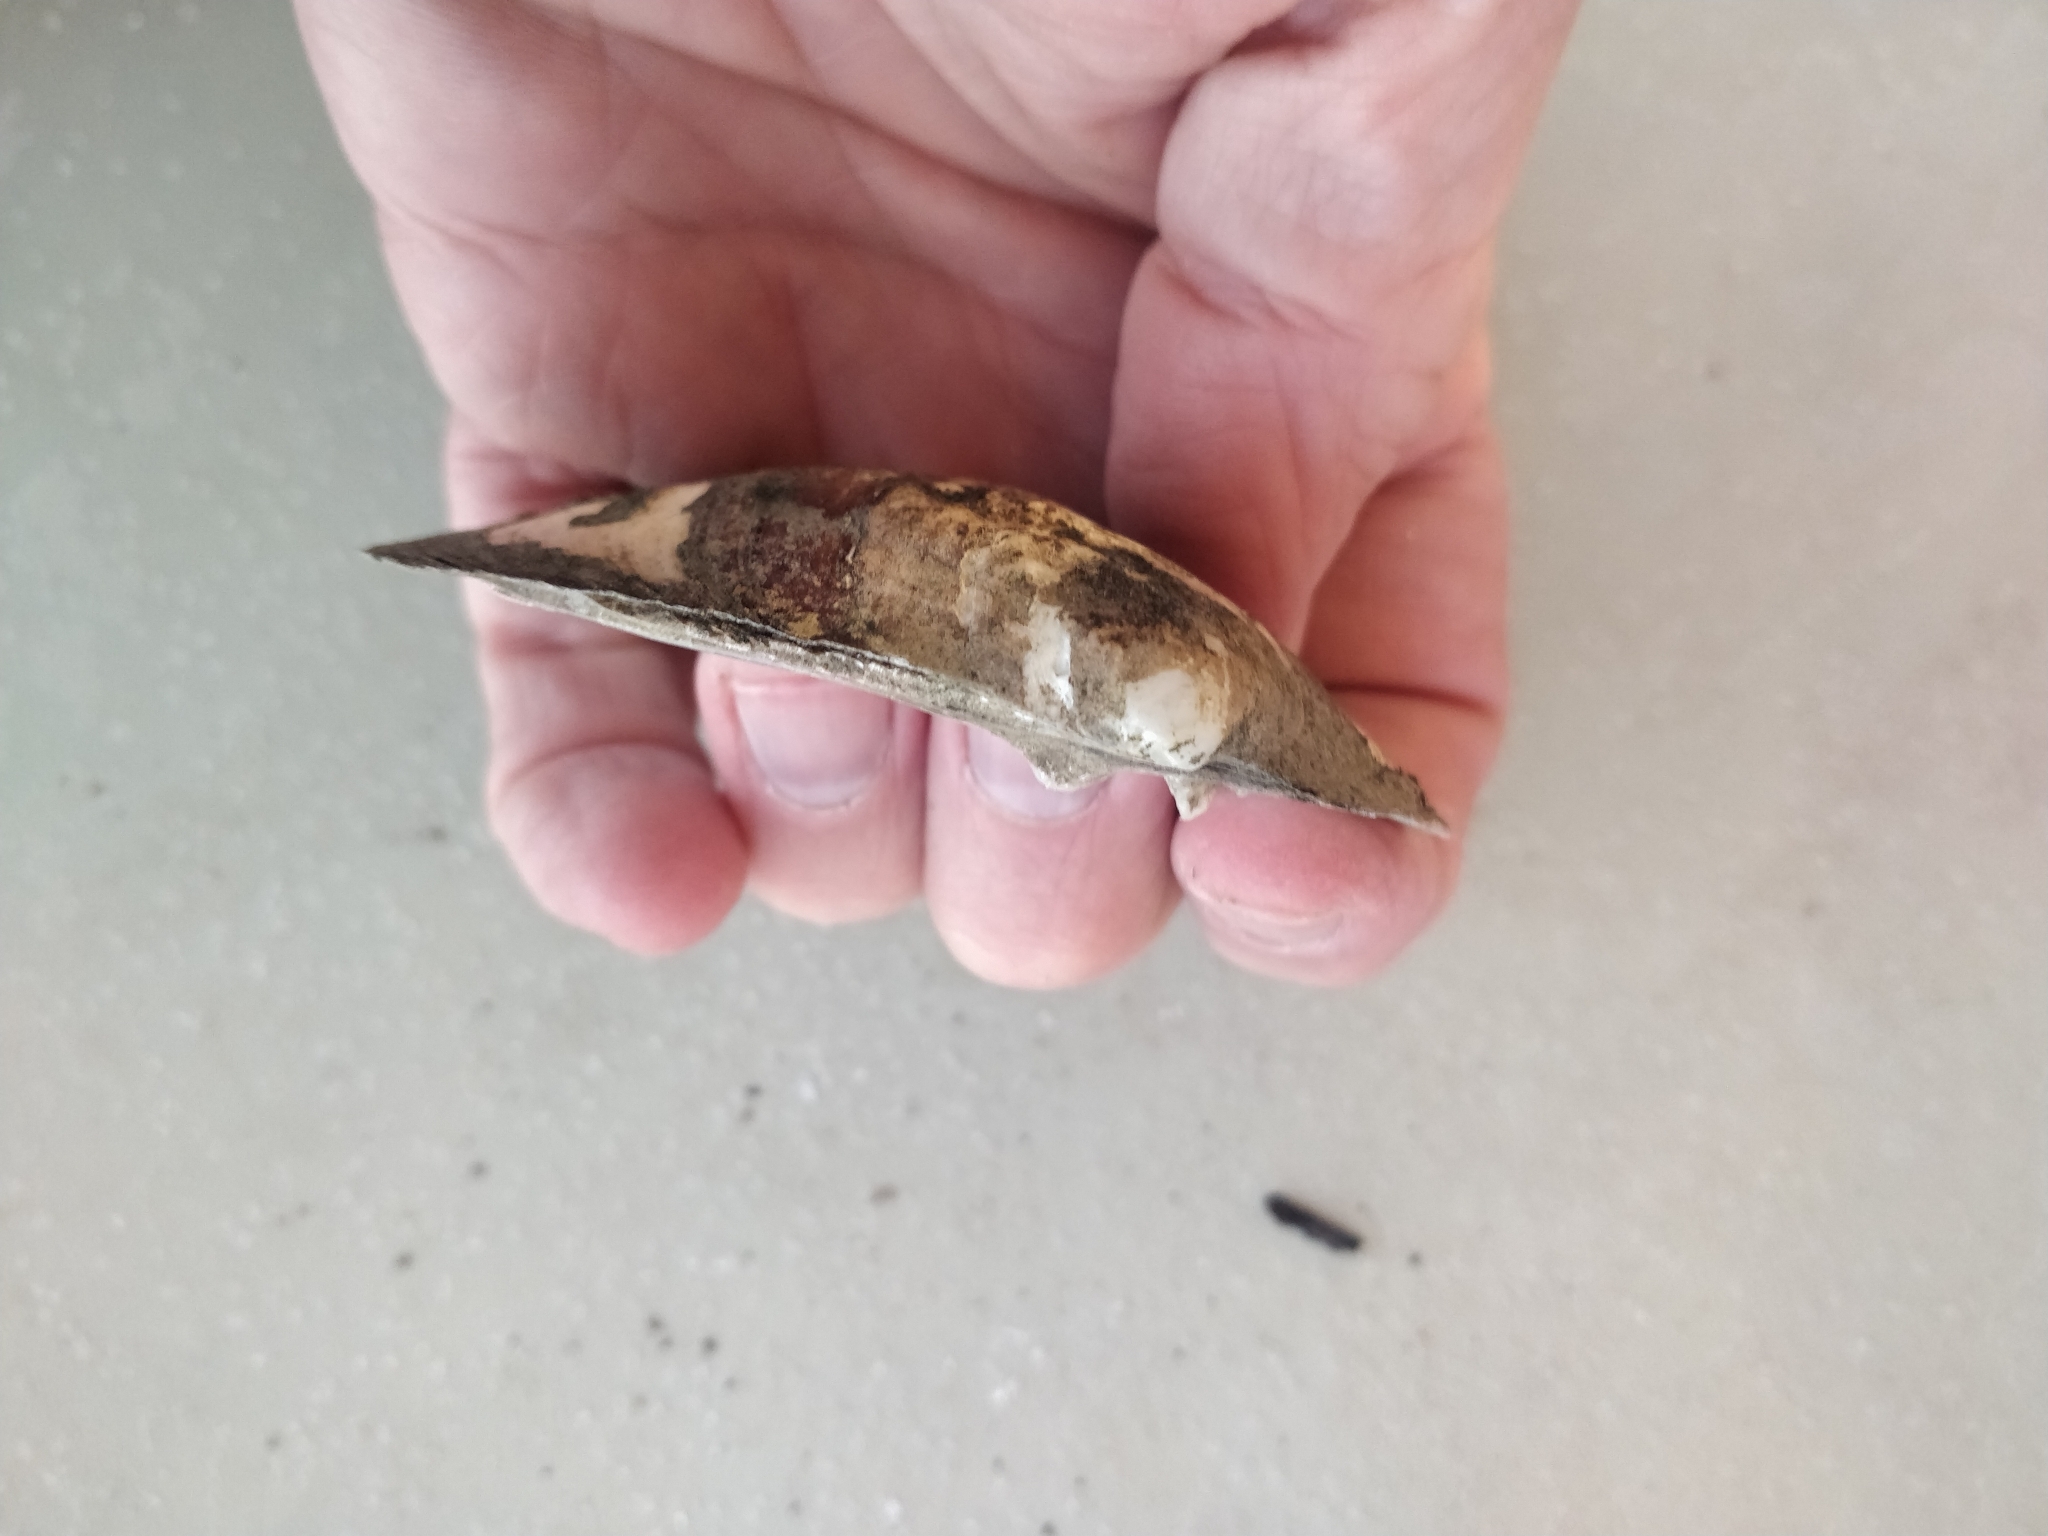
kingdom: Animalia
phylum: Mollusca
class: Bivalvia
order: Unionida
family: Unionidae
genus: Amblema
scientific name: Amblema plicata
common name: Threeridge
